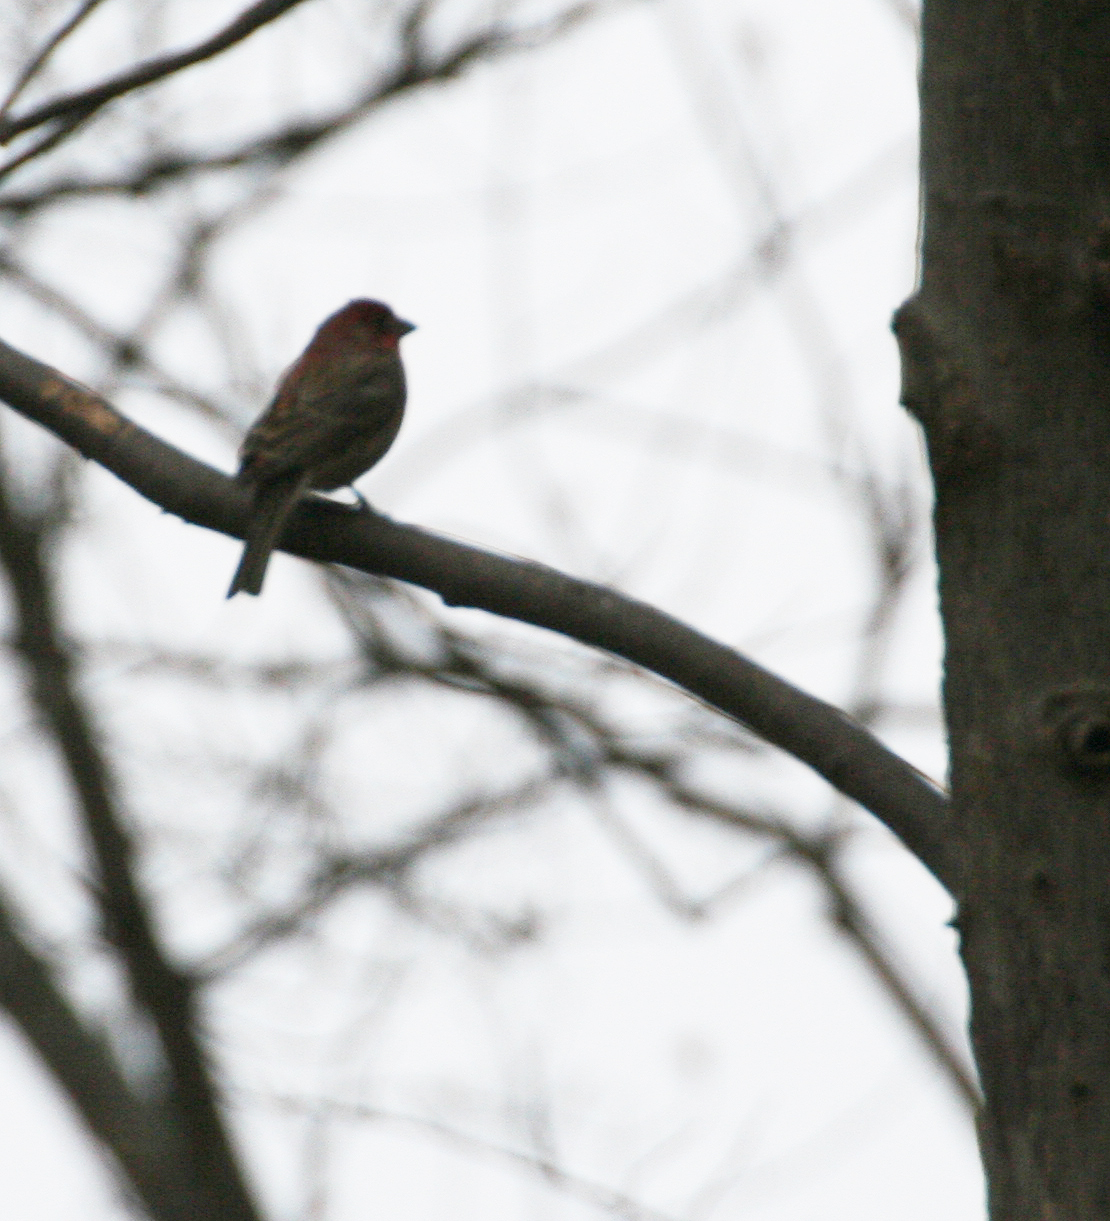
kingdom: Animalia
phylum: Chordata
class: Aves
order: Passeriformes
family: Fringillidae
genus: Haemorhous
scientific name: Haemorhous mexicanus
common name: House finch
